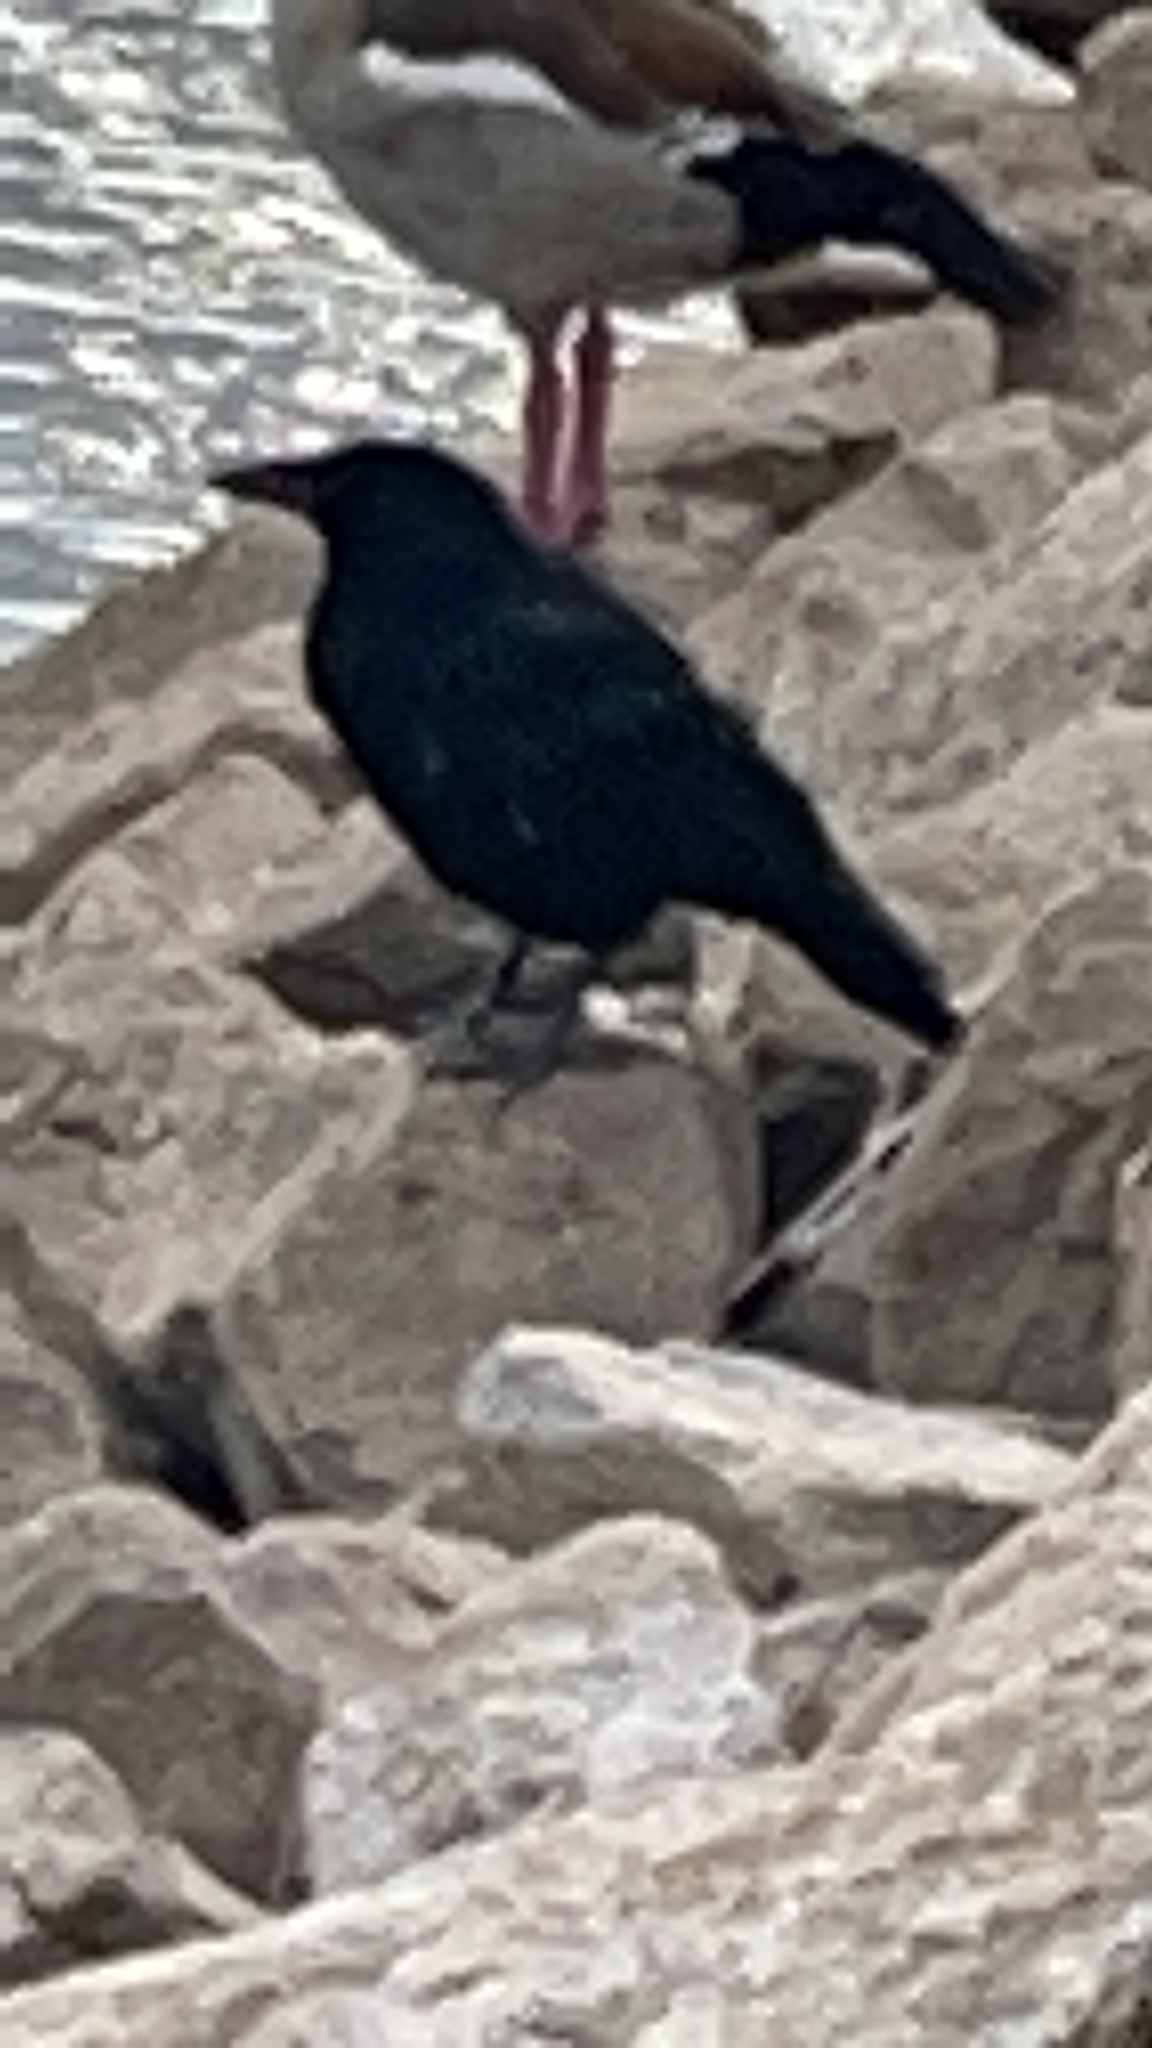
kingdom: Animalia
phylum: Chordata
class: Aves
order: Passeriformes
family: Corvidae
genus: Corvus
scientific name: Corvus corone
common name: Carrion crow
